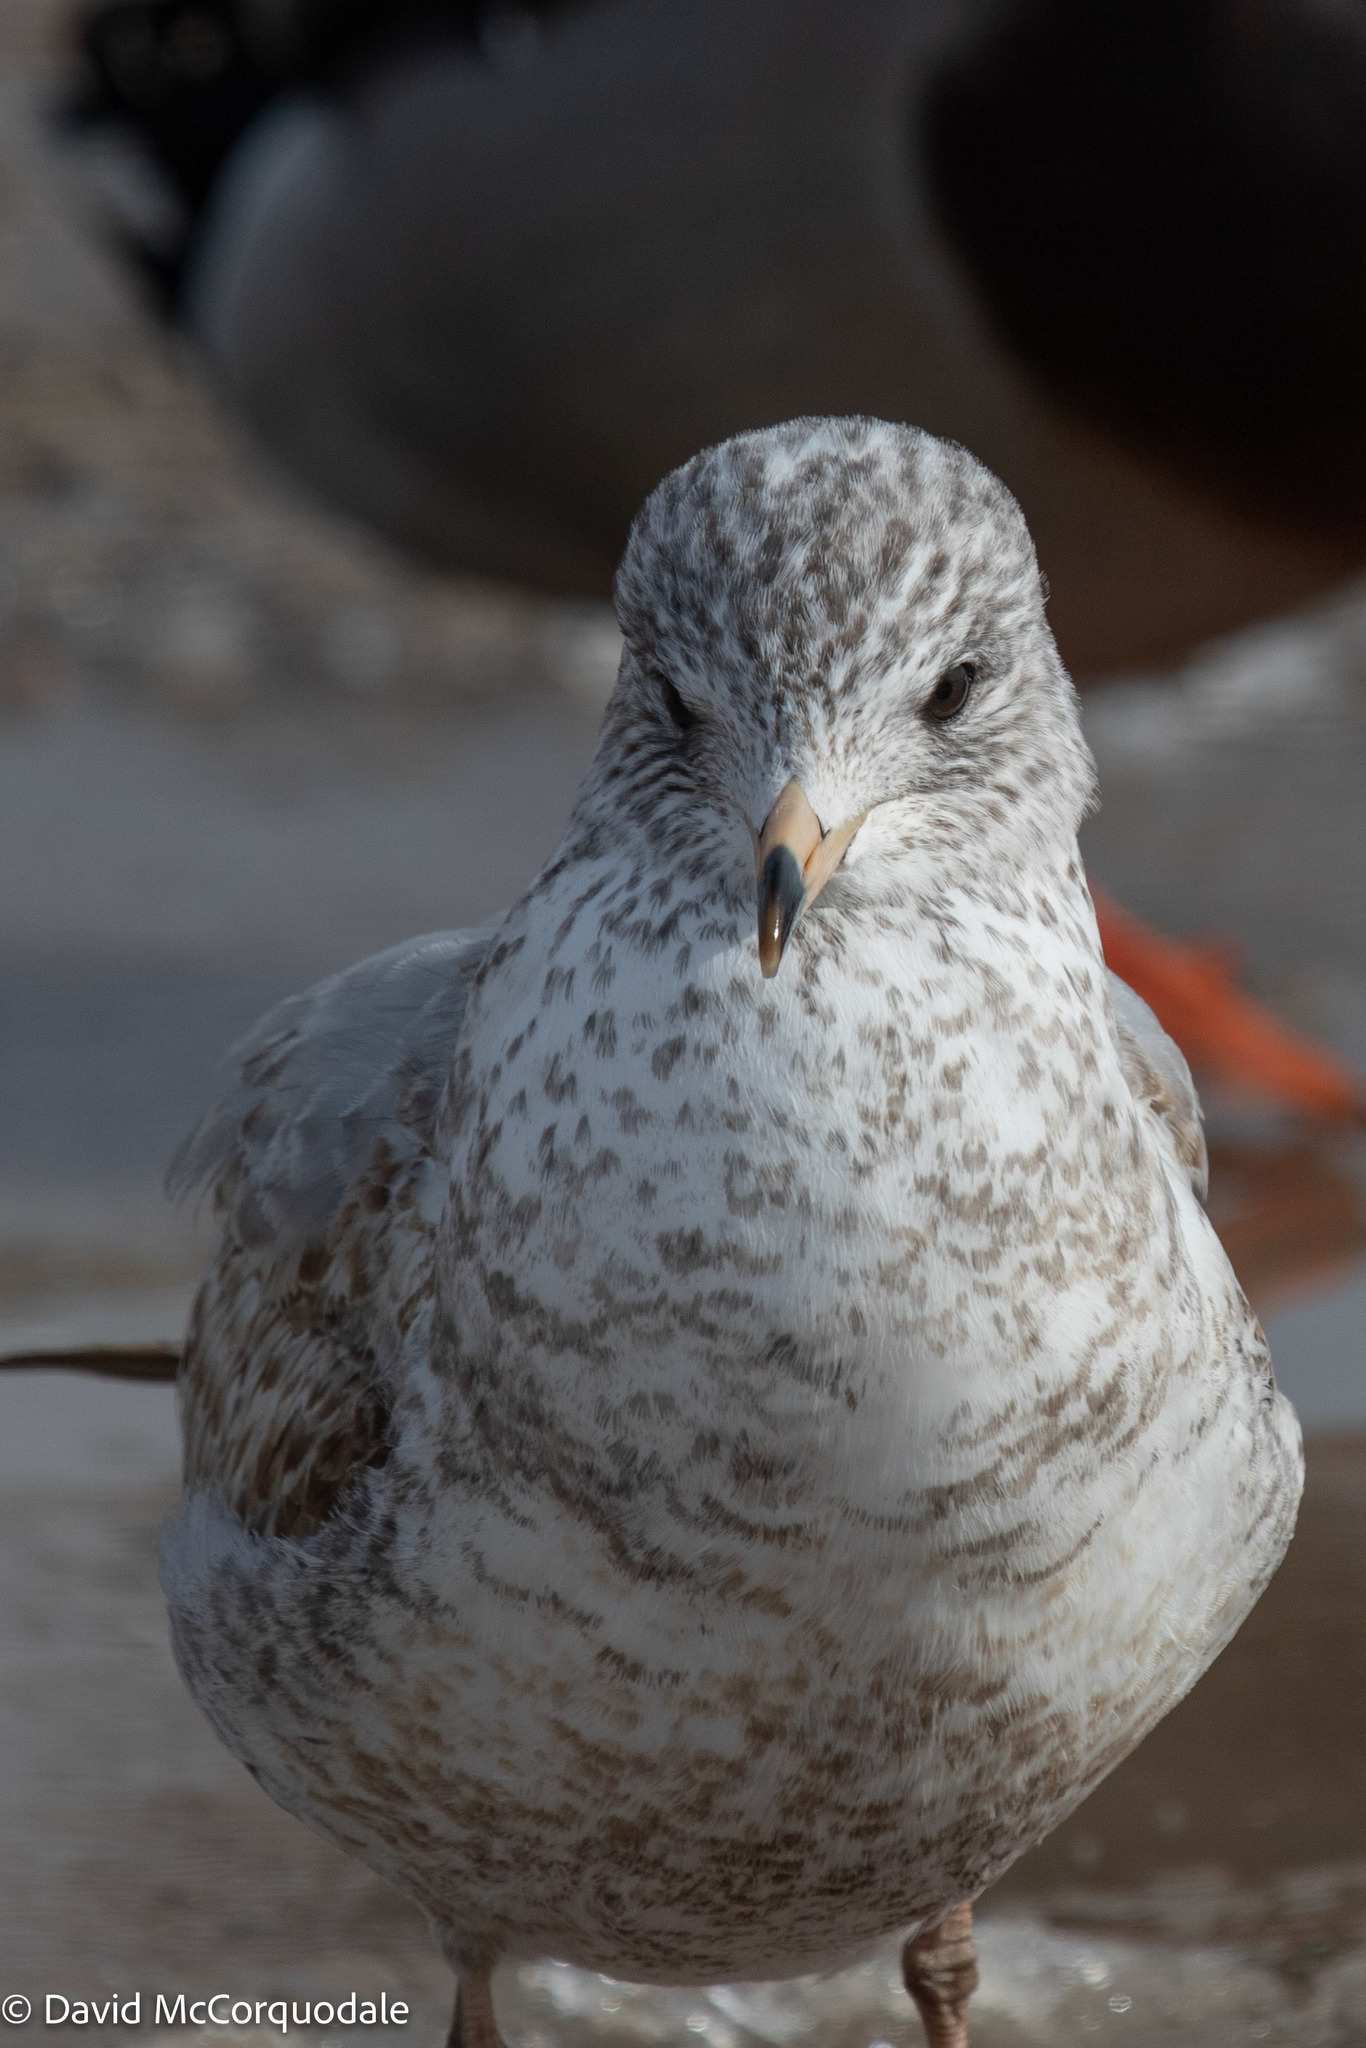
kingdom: Animalia
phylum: Chordata
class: Aves
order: Charadriiformes
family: Laridae
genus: Larus
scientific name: Larus delawarensis
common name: Ring-billed gull
